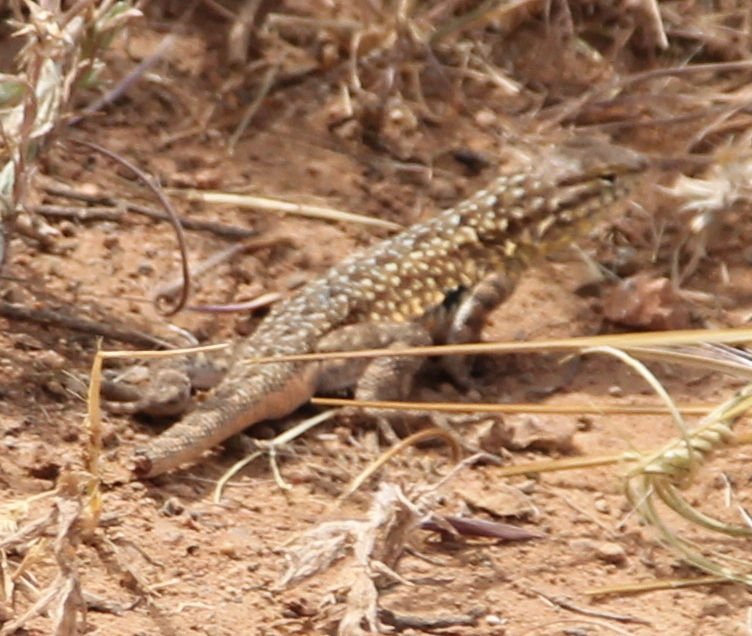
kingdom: Animalia
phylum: Chordata
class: Squamata
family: Phrynosomatidae
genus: Uta
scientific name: Uta stansburiana
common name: Side-blotched lizard
